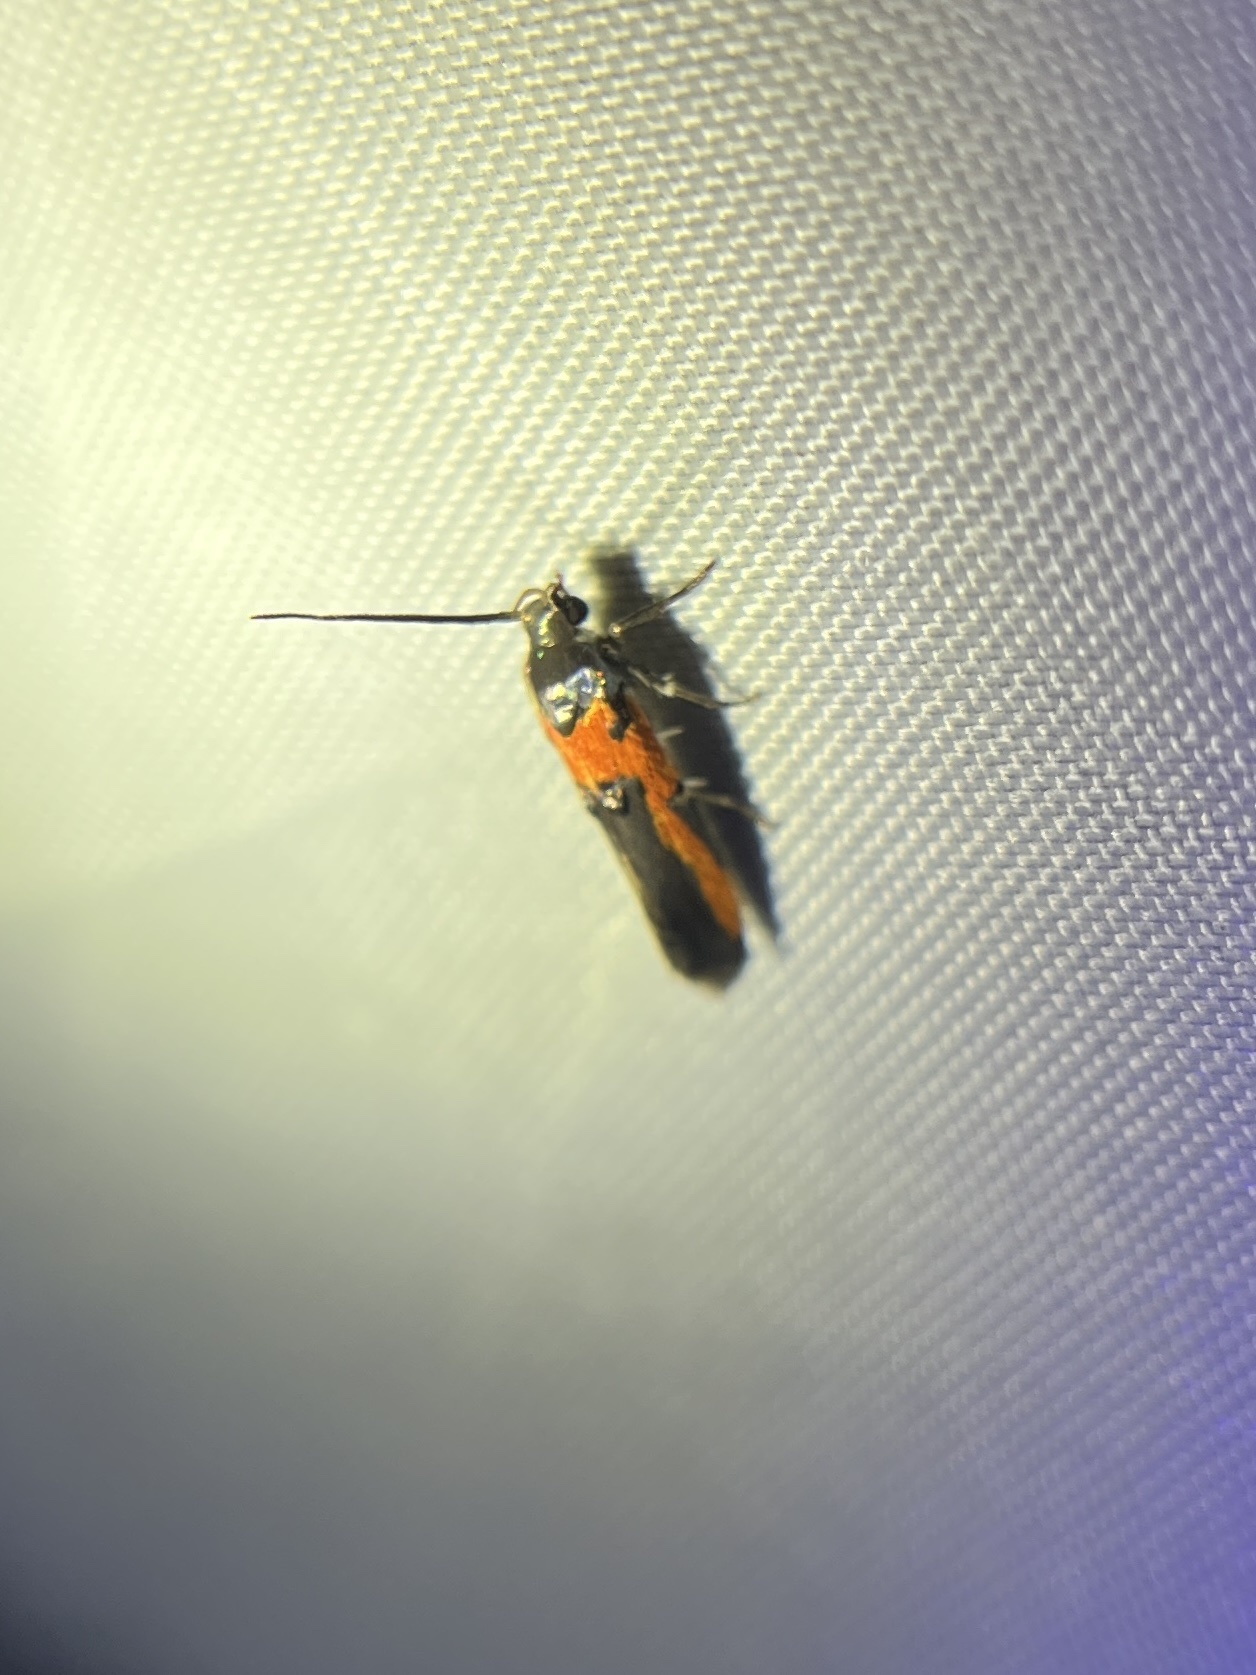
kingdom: Animalia
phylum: Arthropoda
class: Insecta
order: Lepidoptera
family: Cosmopterigidae
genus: Euclemensia
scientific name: Euclemensia bassettella
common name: Kermes scale moth
